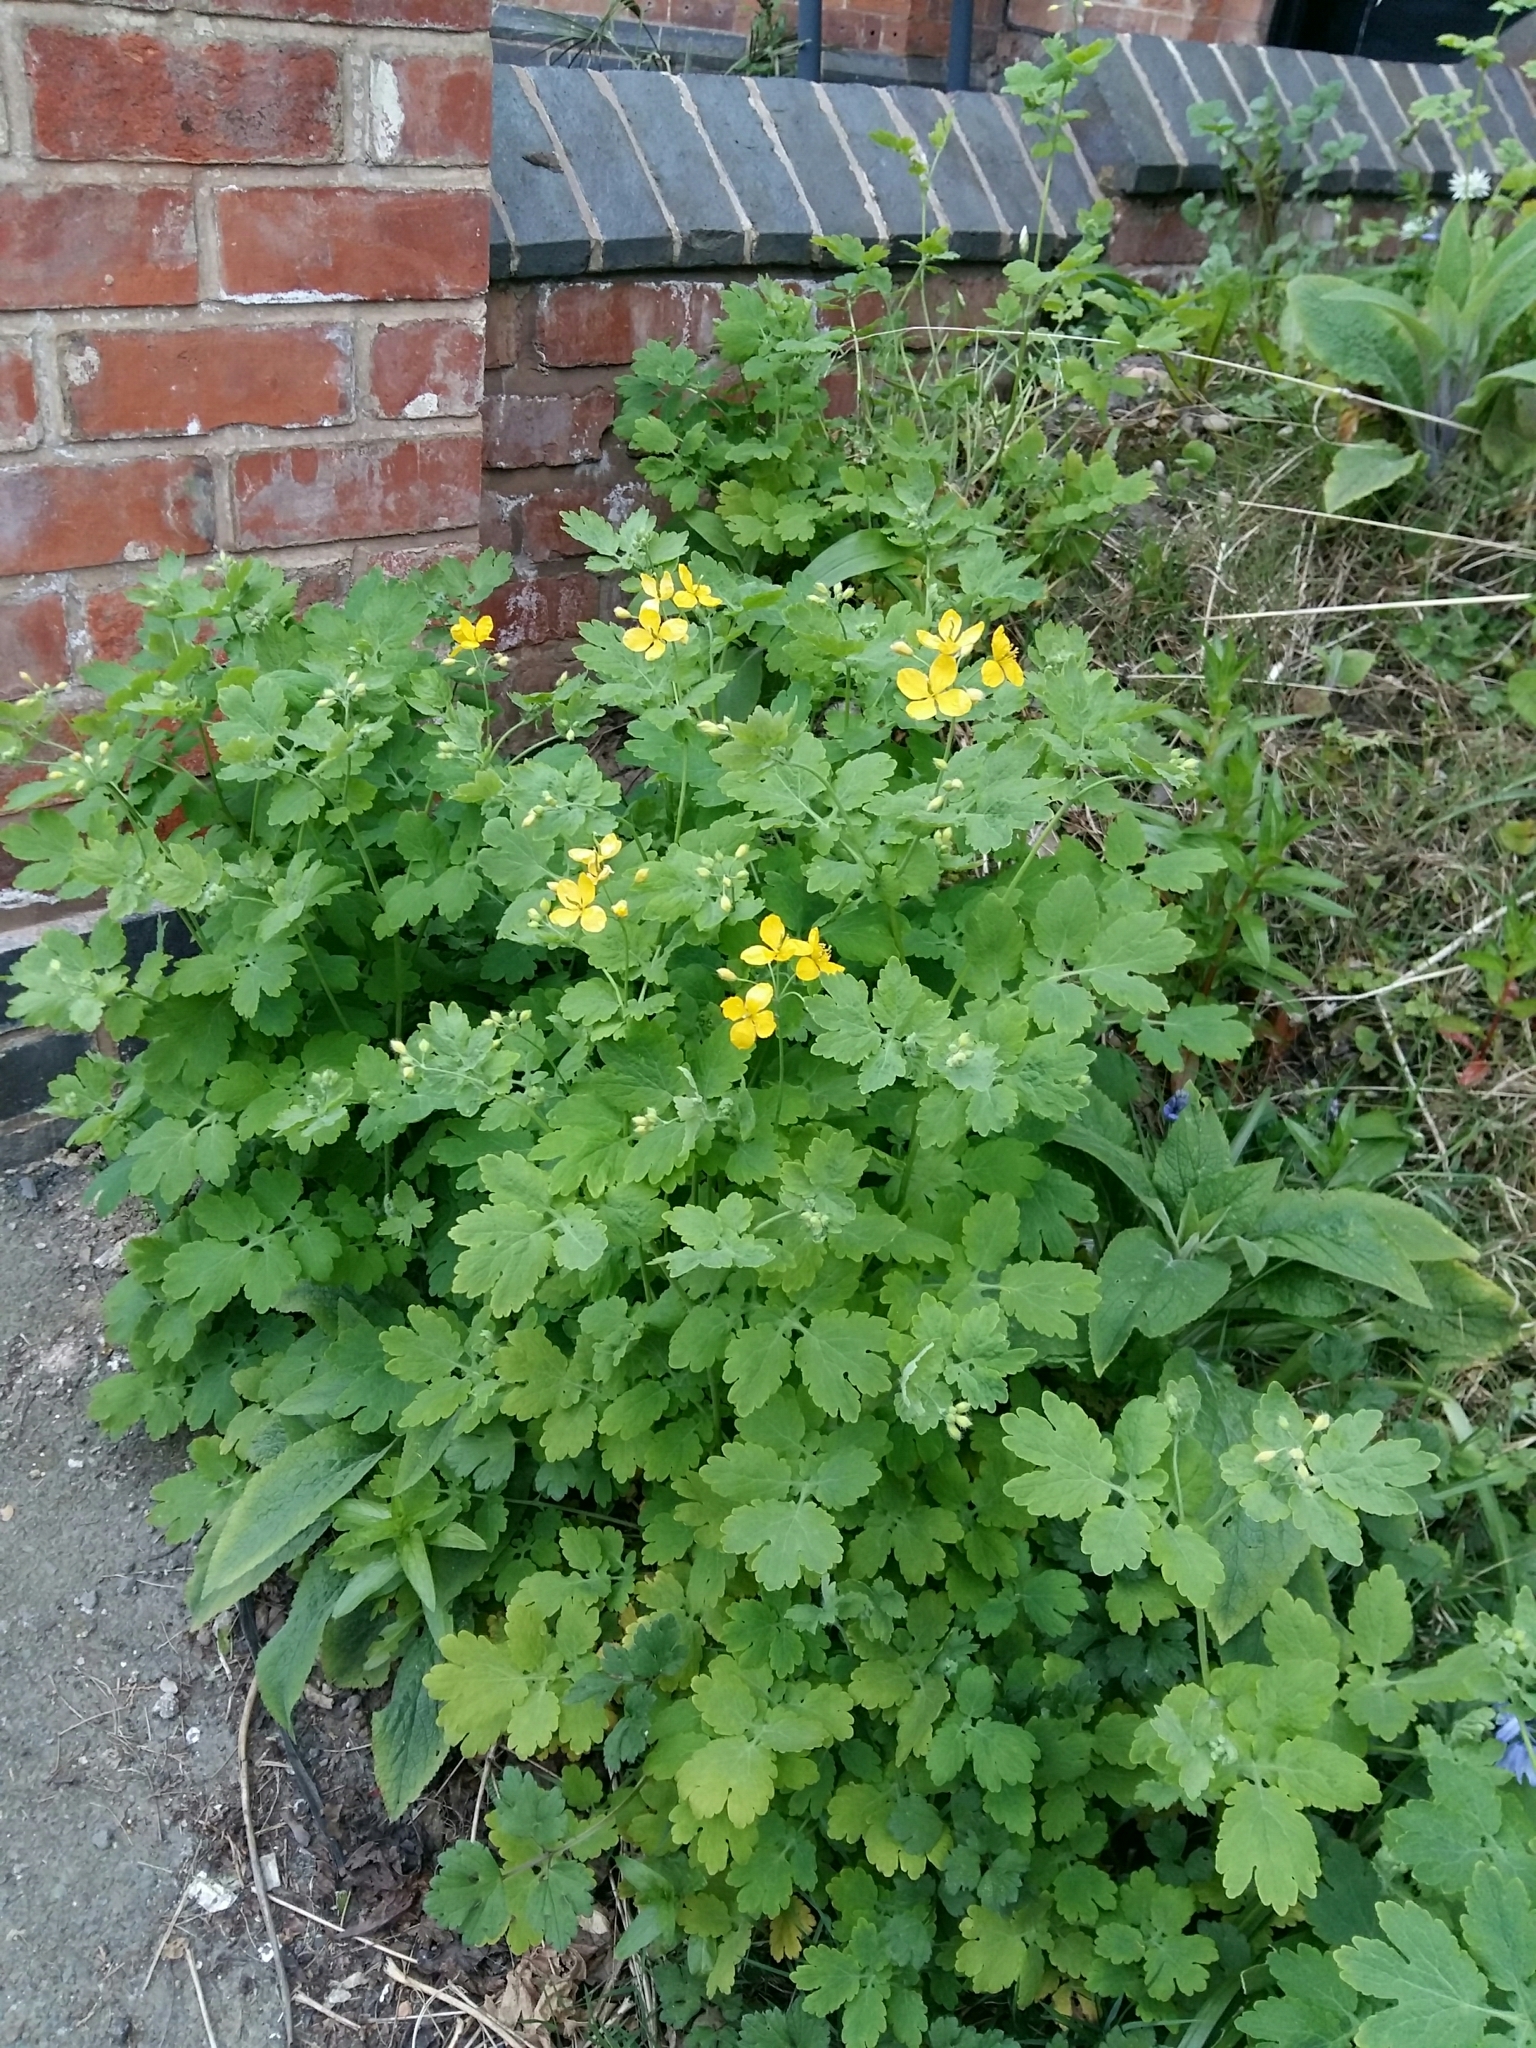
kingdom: Plantae
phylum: Tracheophyta
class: Magnoliopsida
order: Ranunculales
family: Papaveraceae
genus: Chelidonium
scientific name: Chelidonium majus
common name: Greater celandine
